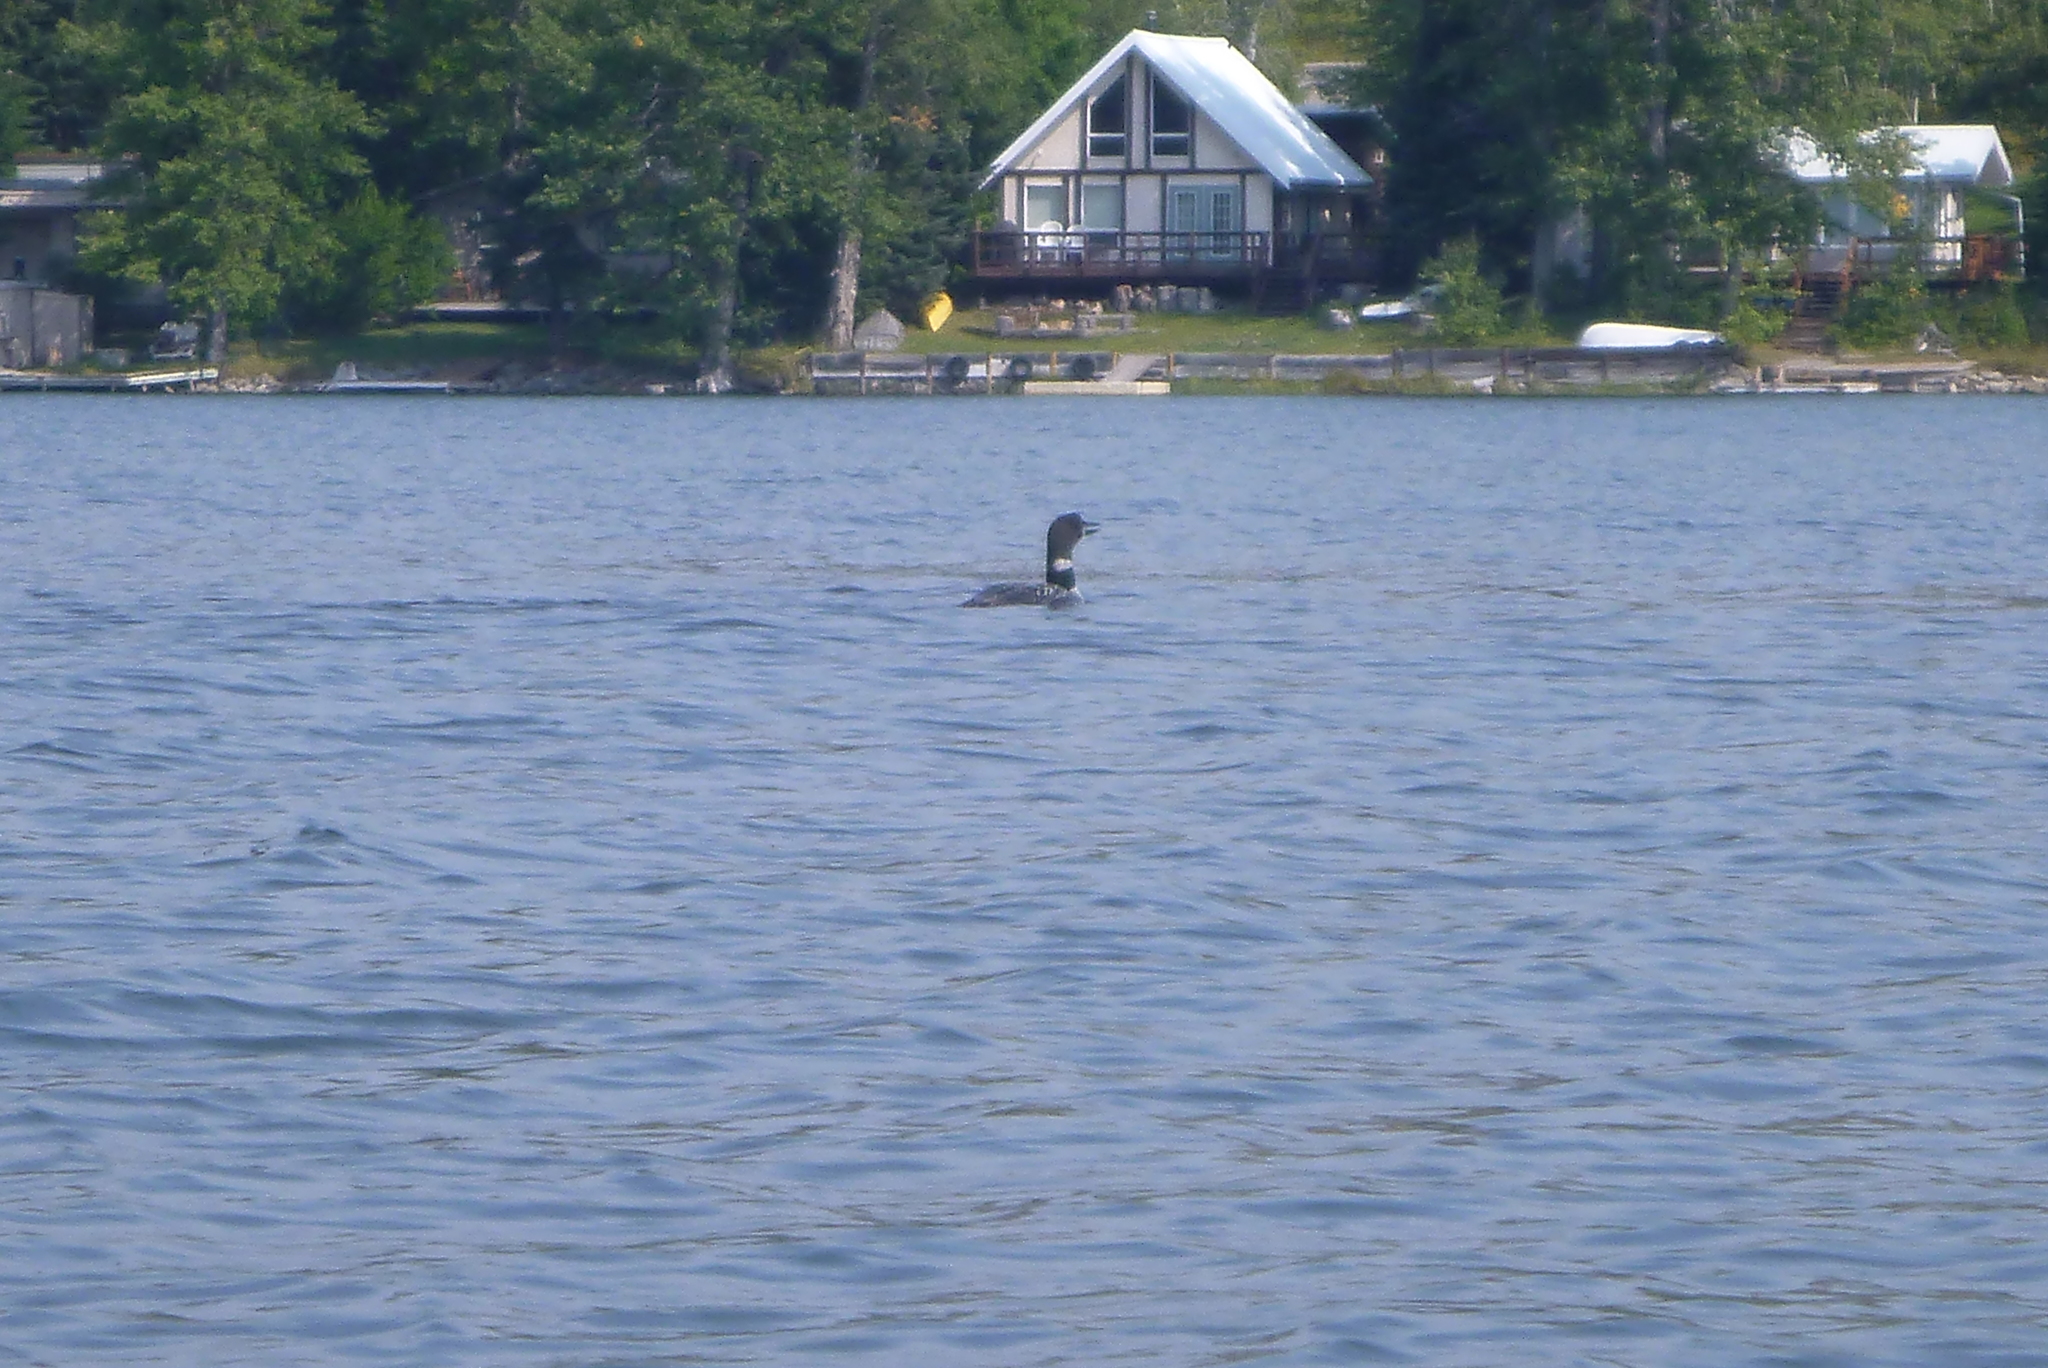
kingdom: Animalia
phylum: Chordata
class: Aves
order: Gaviiformes
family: Gaviidae
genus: Gavia
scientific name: Gavia immer
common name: Common loon
